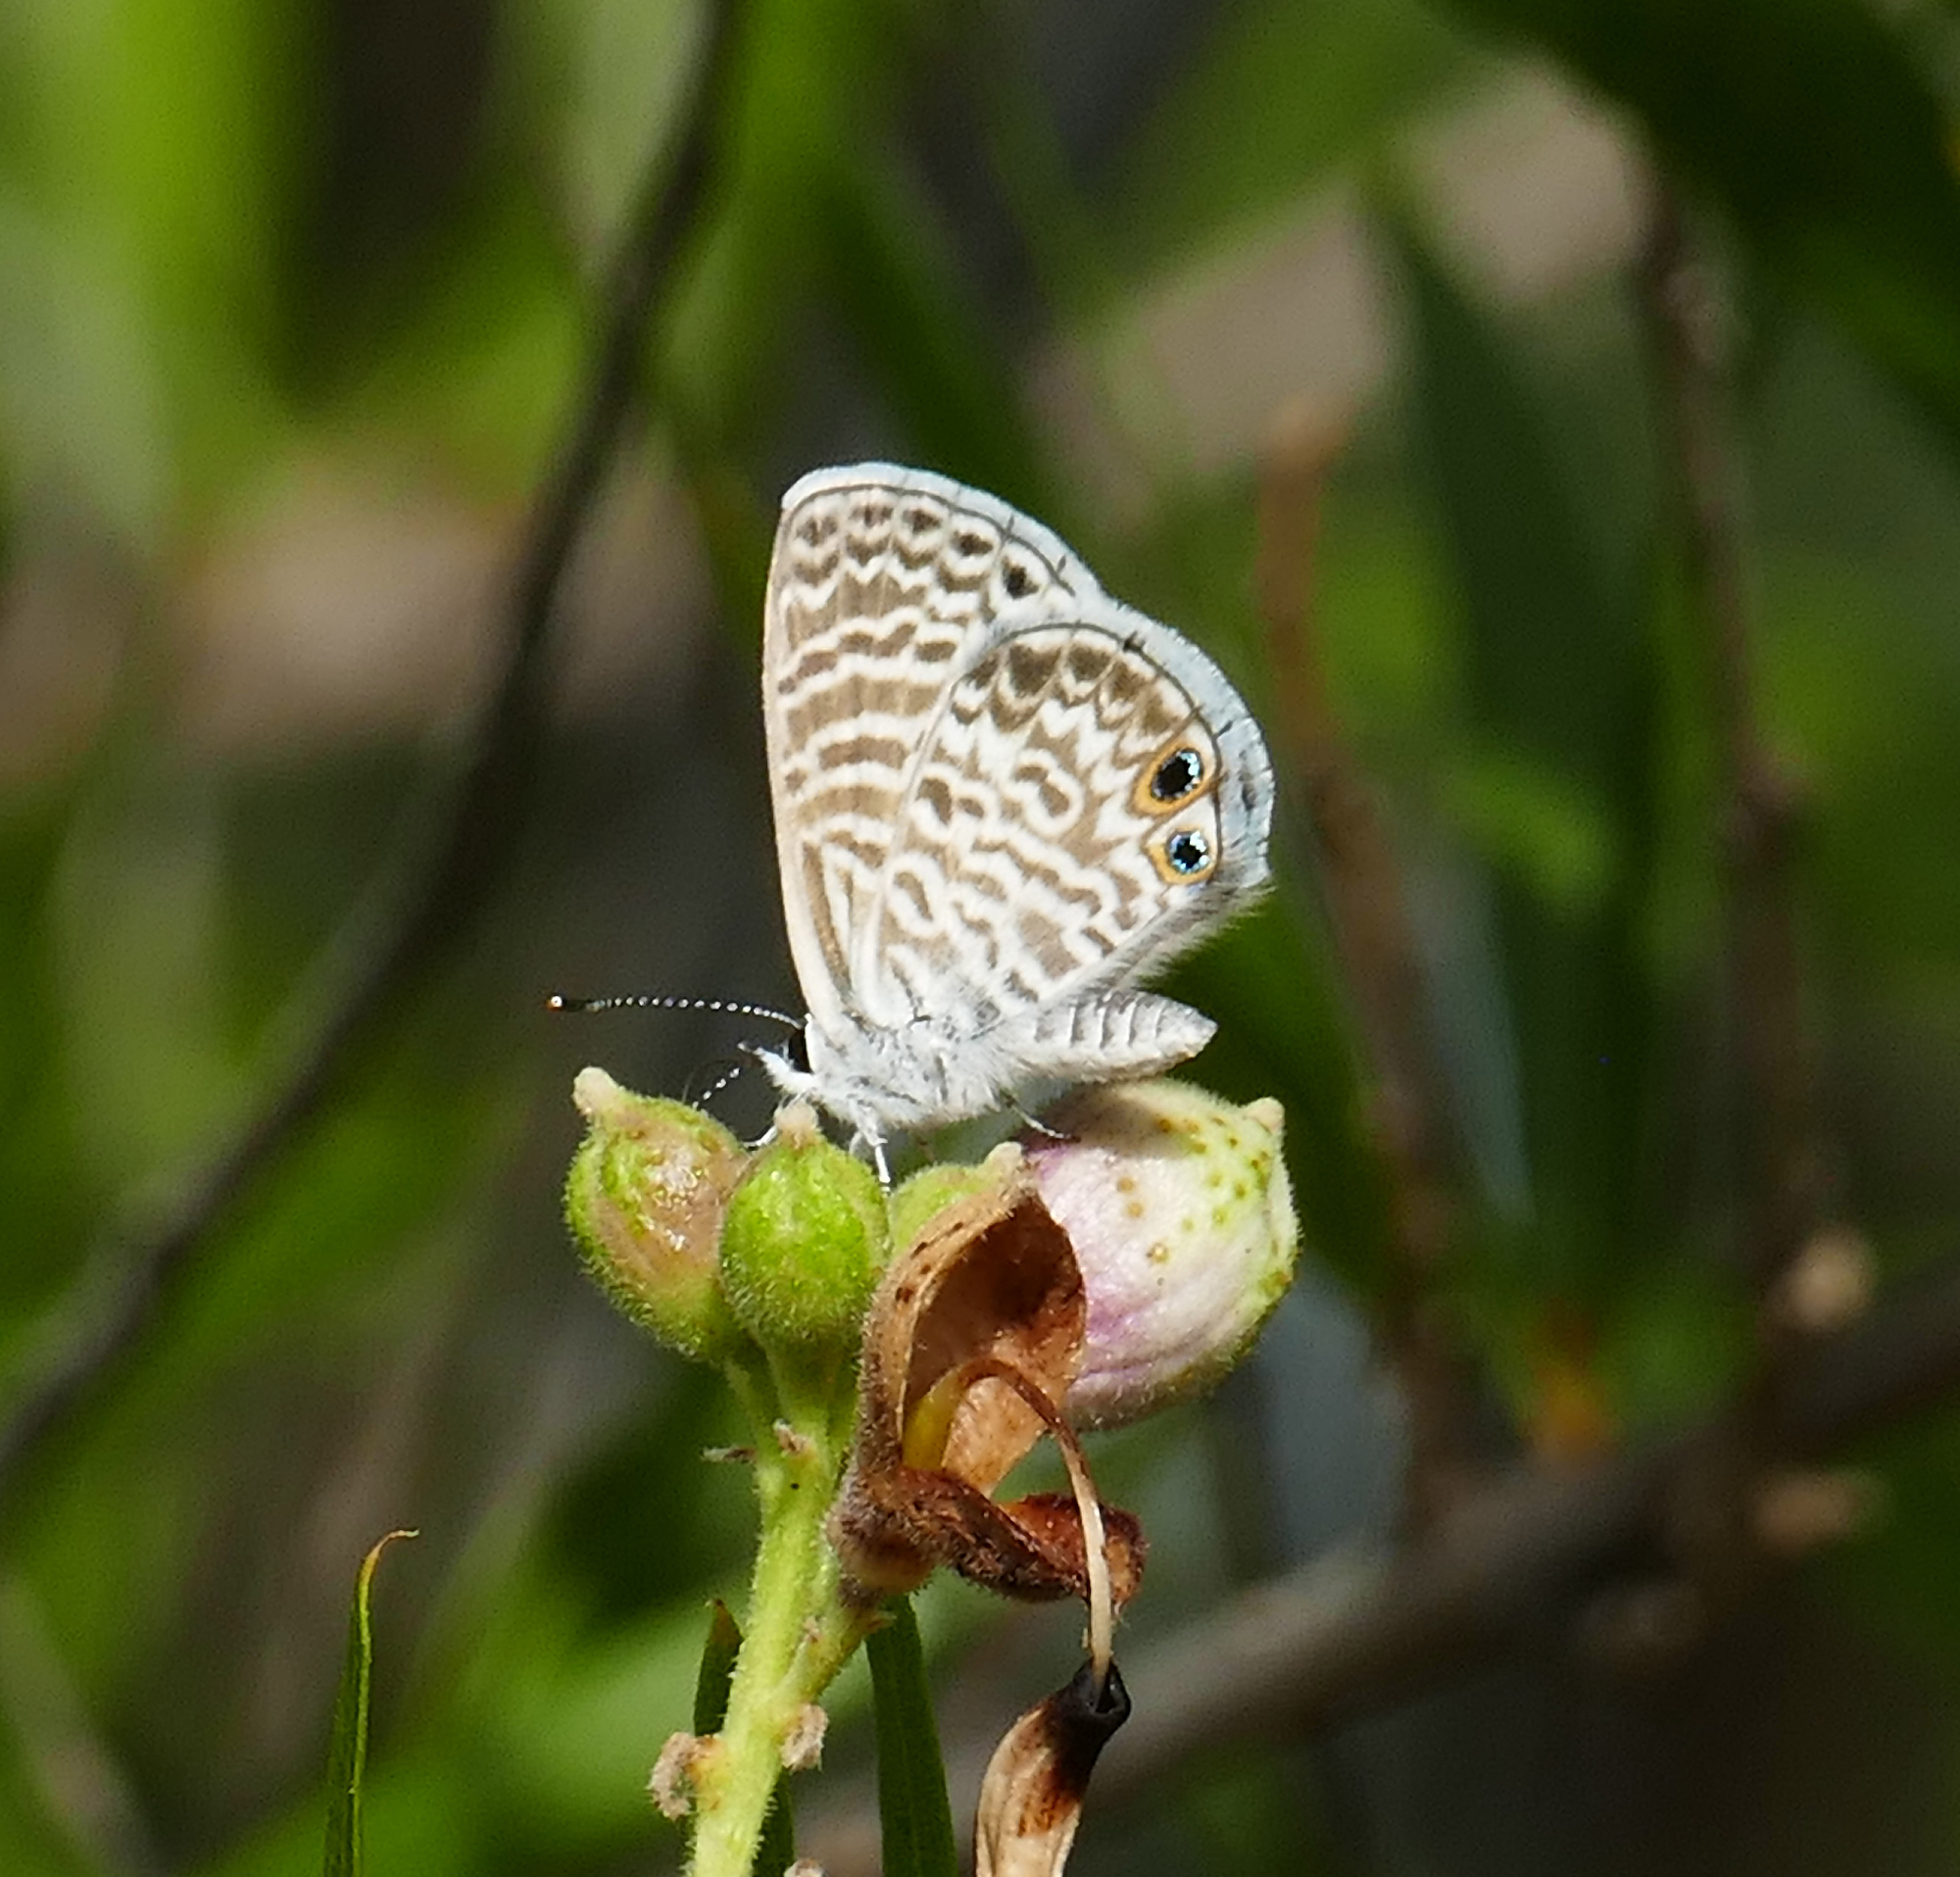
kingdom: Animalia
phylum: Arthropoda
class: Insecta
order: Lepidoptera
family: Lycaenidae
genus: Leptotes
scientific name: Leptotes marina
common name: Marine blue
